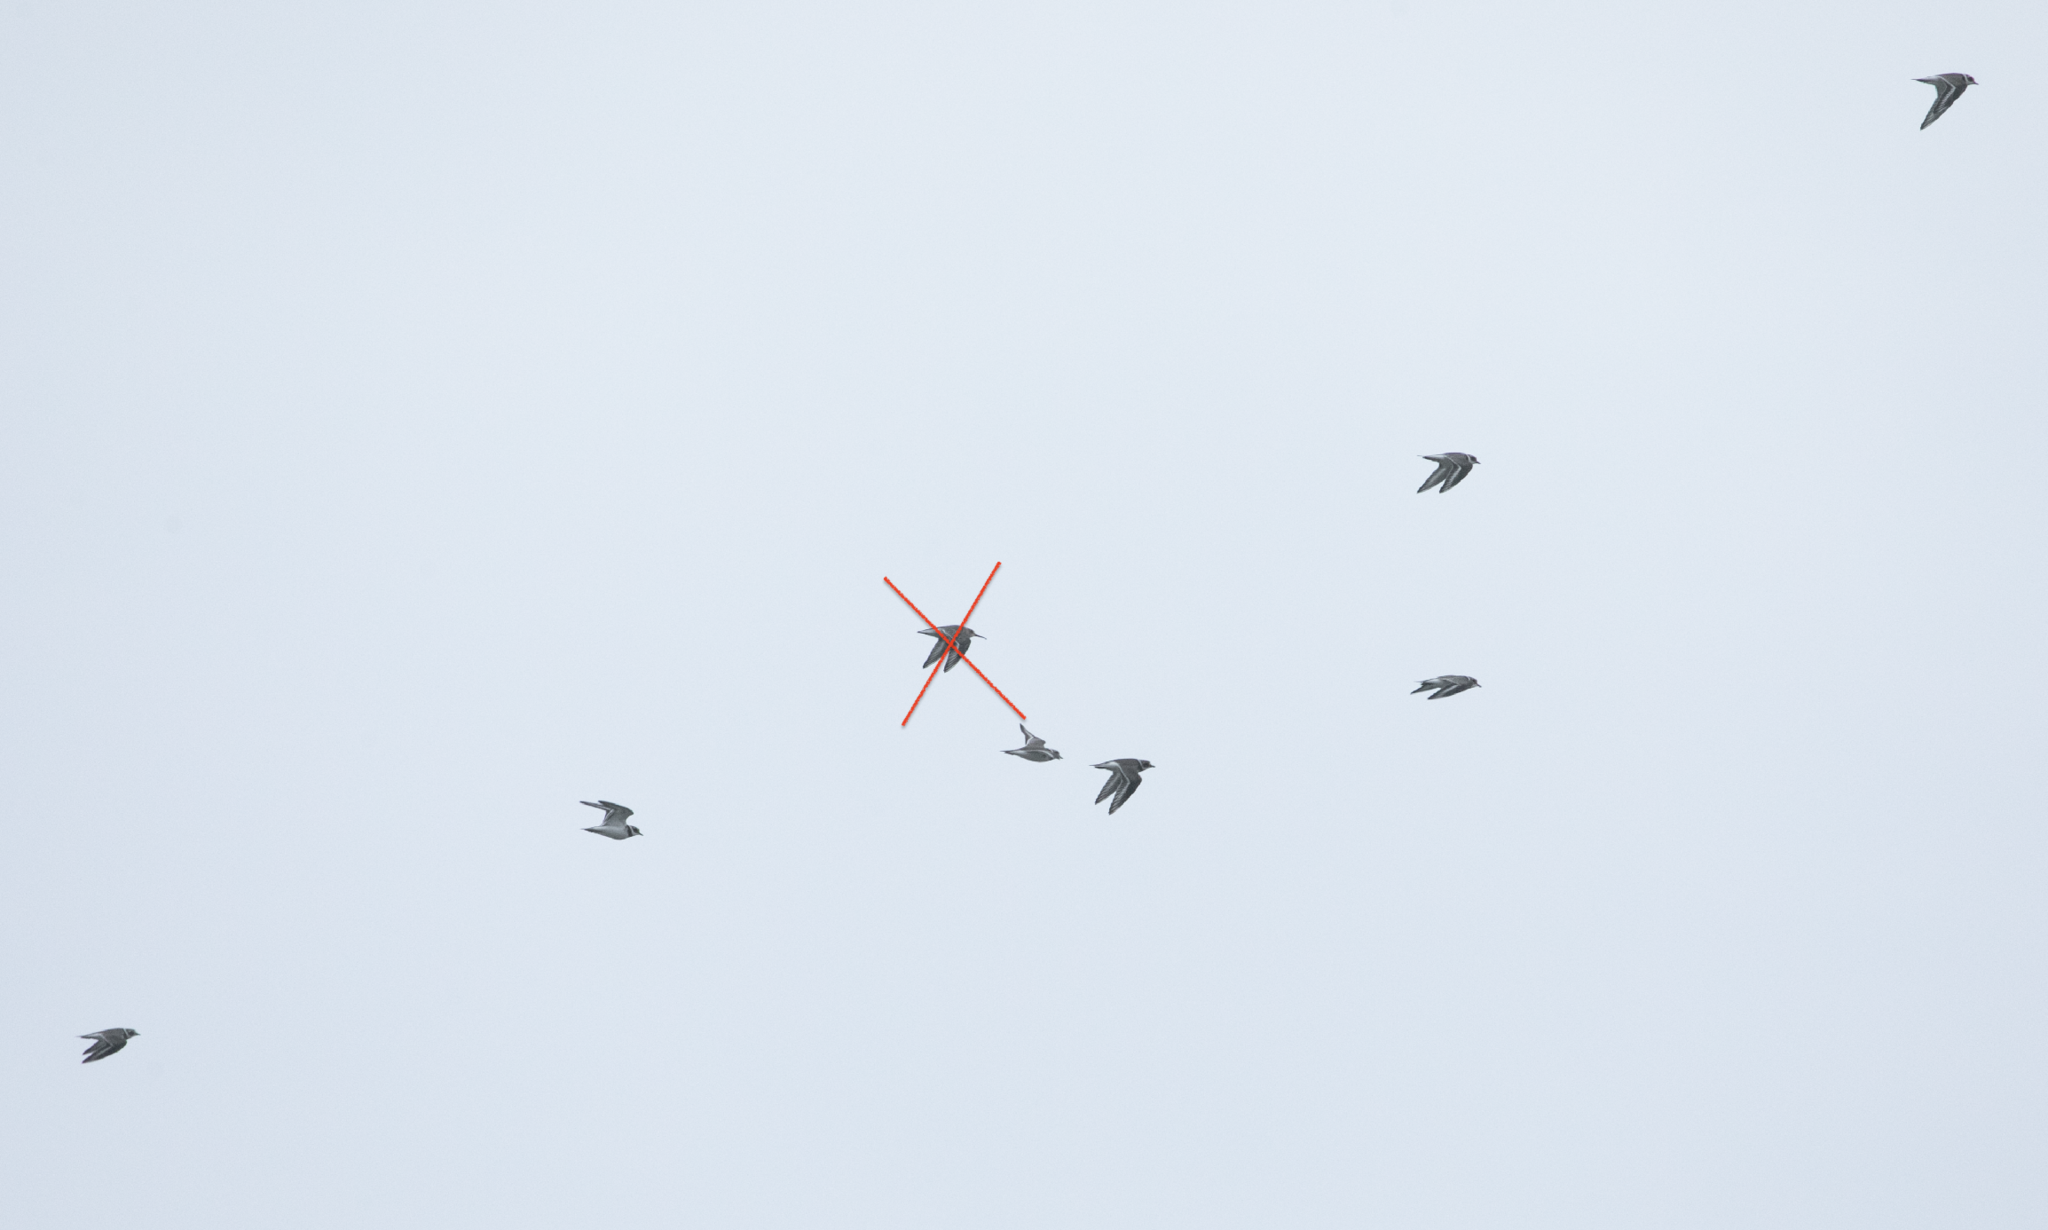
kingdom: Animalia
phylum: Chordata
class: Aves
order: Charadriiformes
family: Charadriidae
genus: Charadrius
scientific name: Charadrius hiaticula
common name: Common ringed plover
